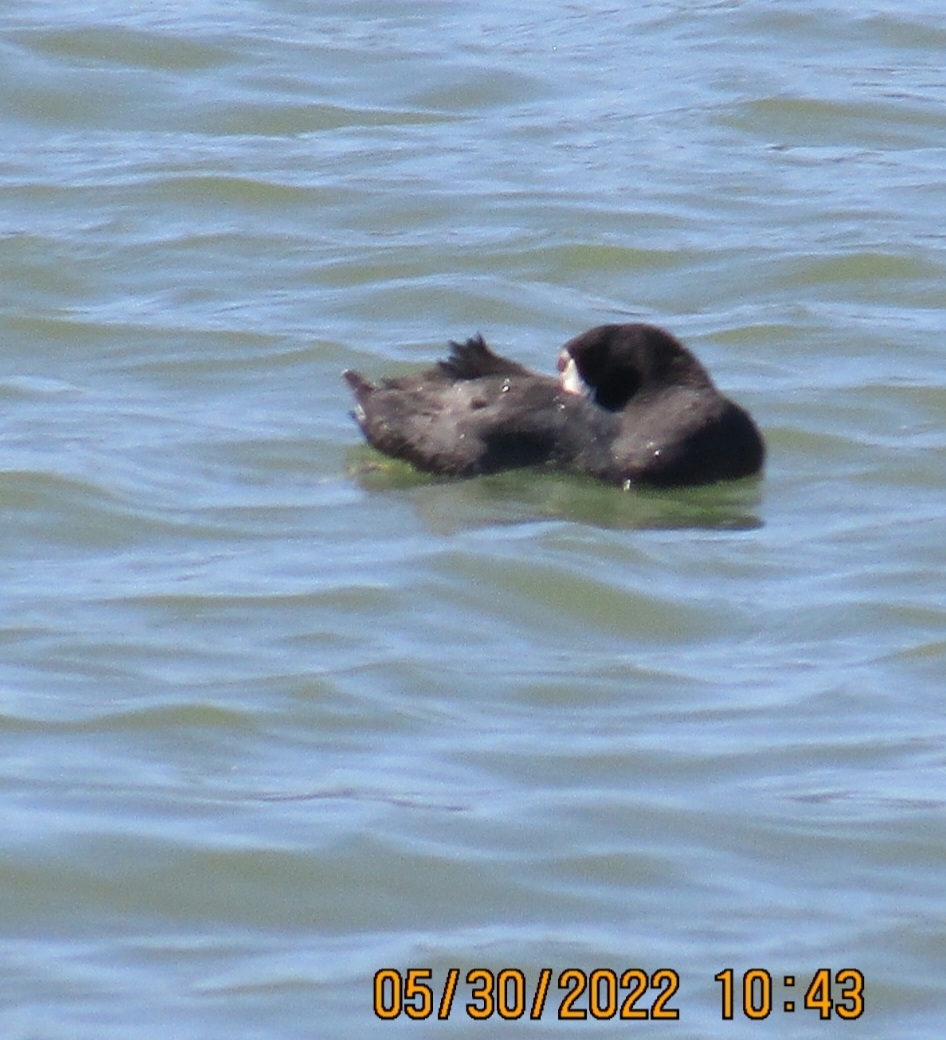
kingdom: Animalia
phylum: Chordata
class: Aves
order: Gruiformes
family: Rallidae
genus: Fulica
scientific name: Fulica americana
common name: American coot
